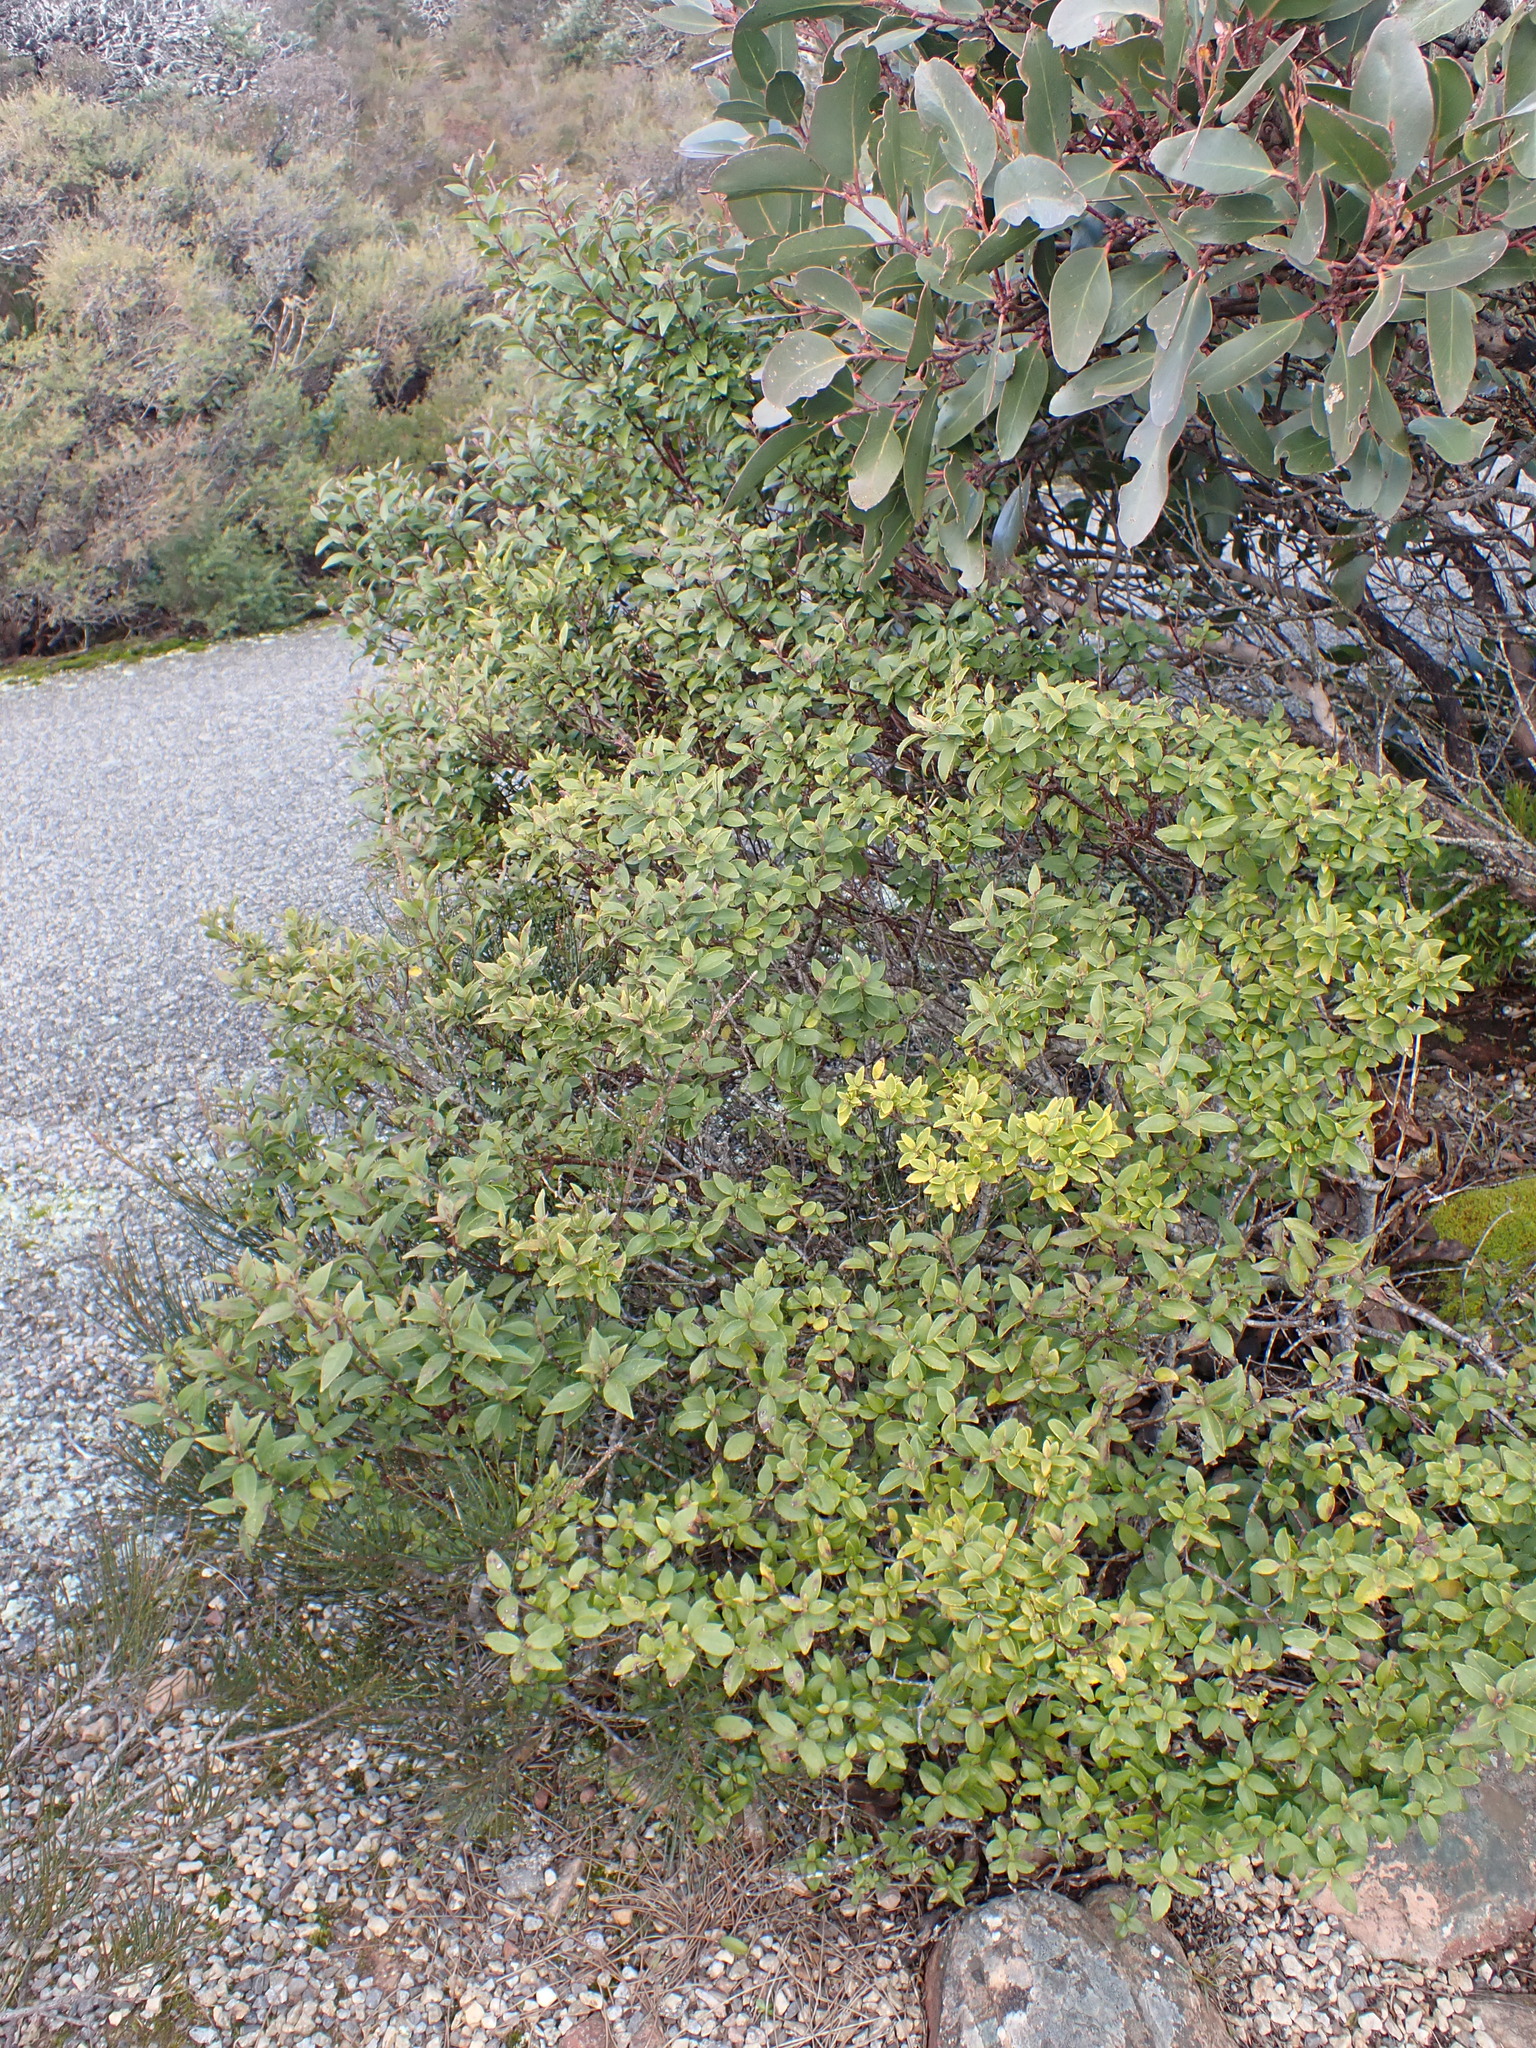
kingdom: Plantae
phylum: Tracheophyta
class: Magnoliopsida
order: Lamiales
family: Lamiaceae
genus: Prostanthera
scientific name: Prostanthera lasianthos
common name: Mountain-lilac
